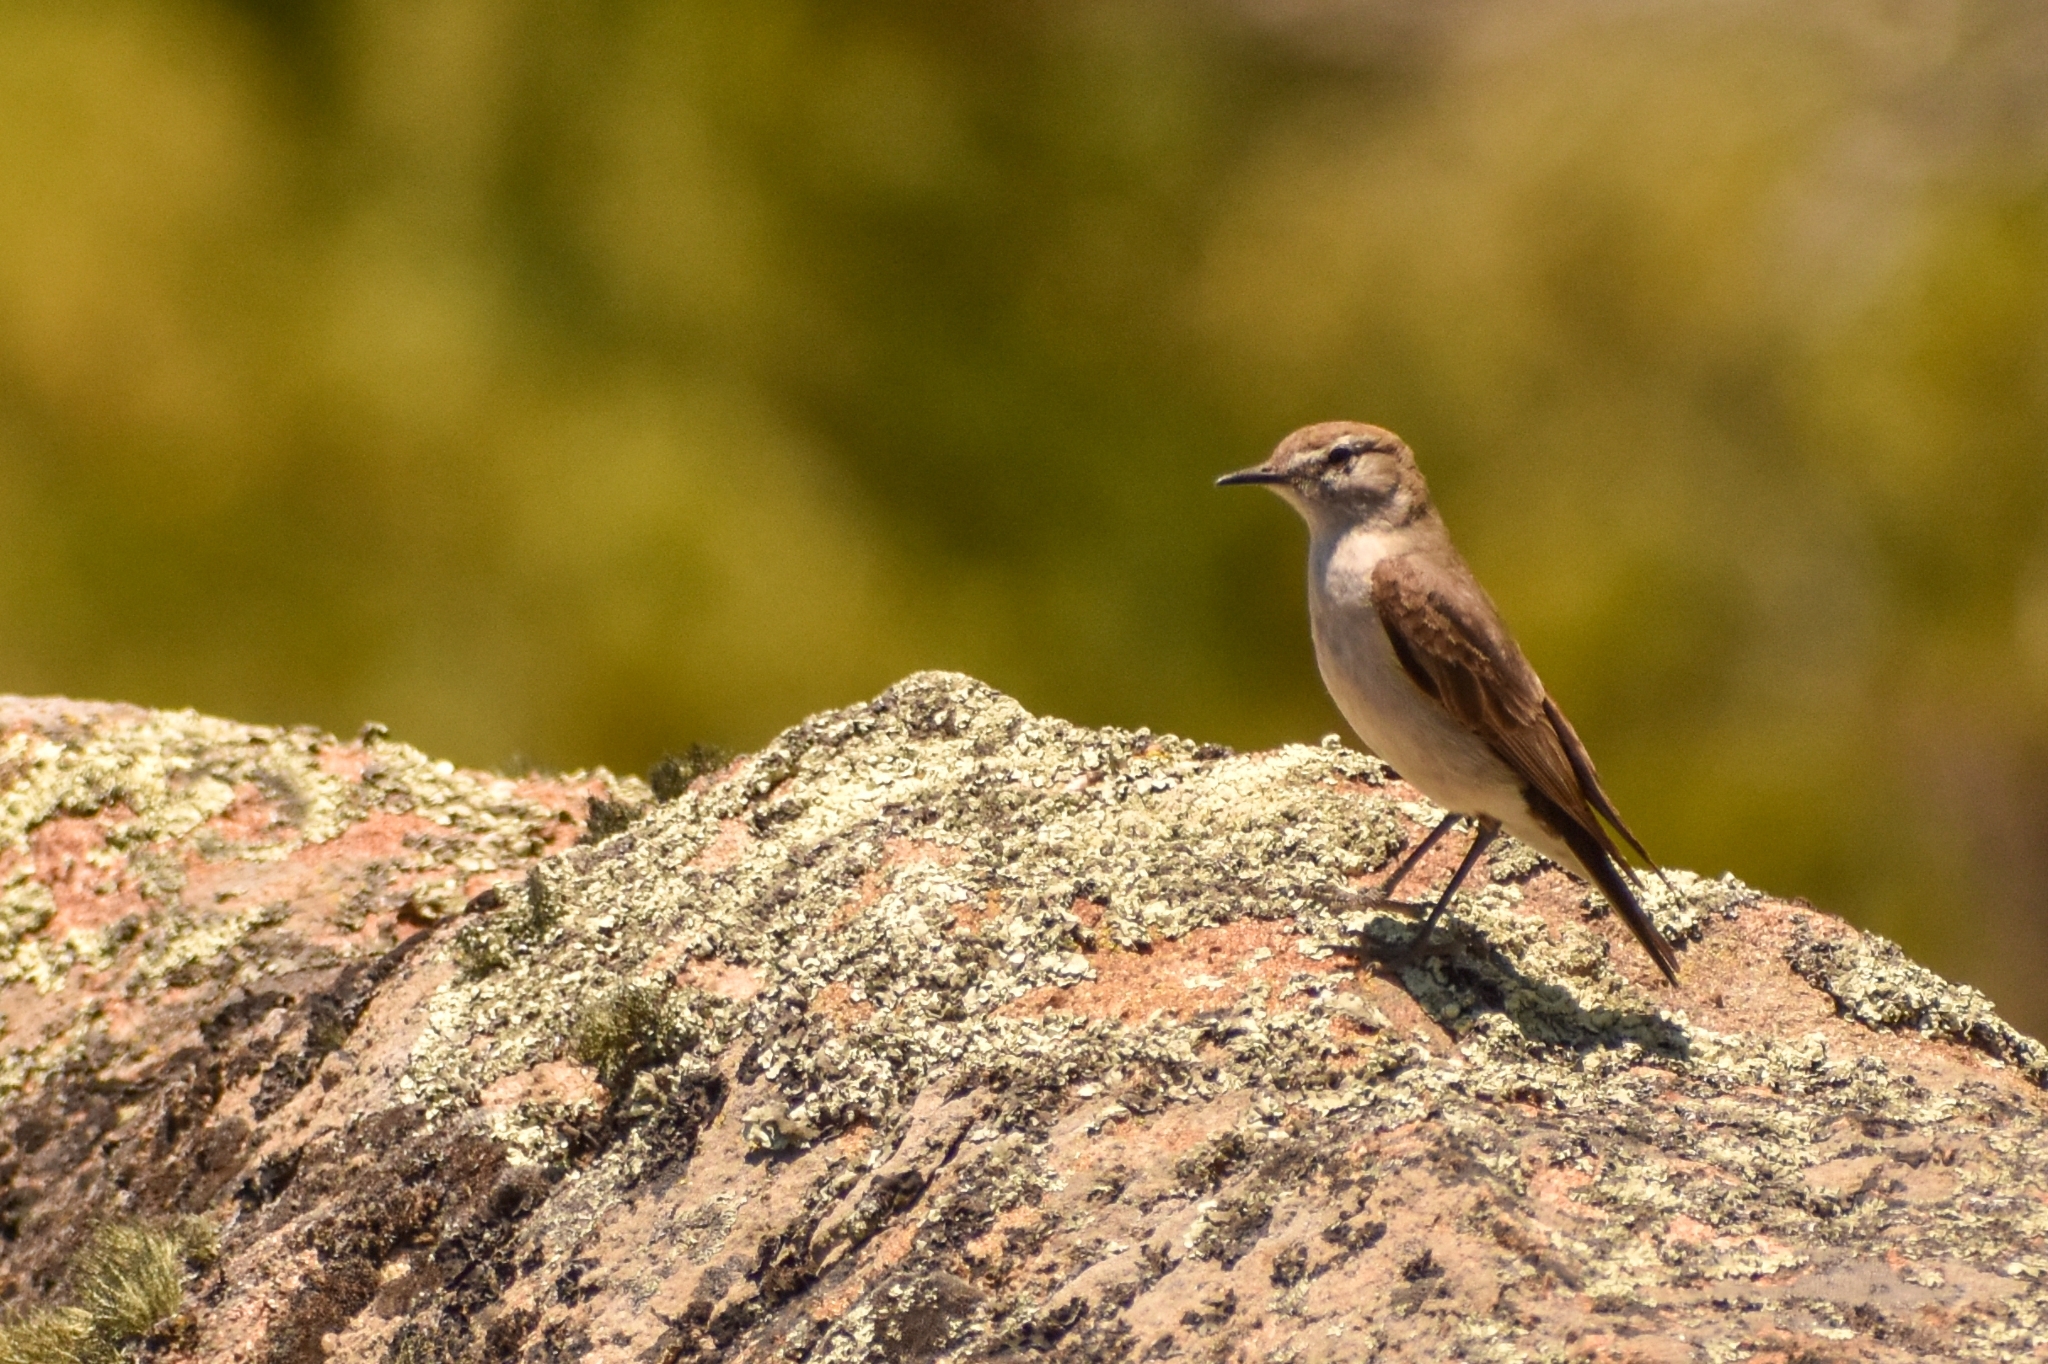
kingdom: Animalia
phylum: Chordata
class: Aves
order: Passeriformes
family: Tyrannidae
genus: Muscisaxicola
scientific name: Muscisaxicola albilora
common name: White-browed ground tyrant
